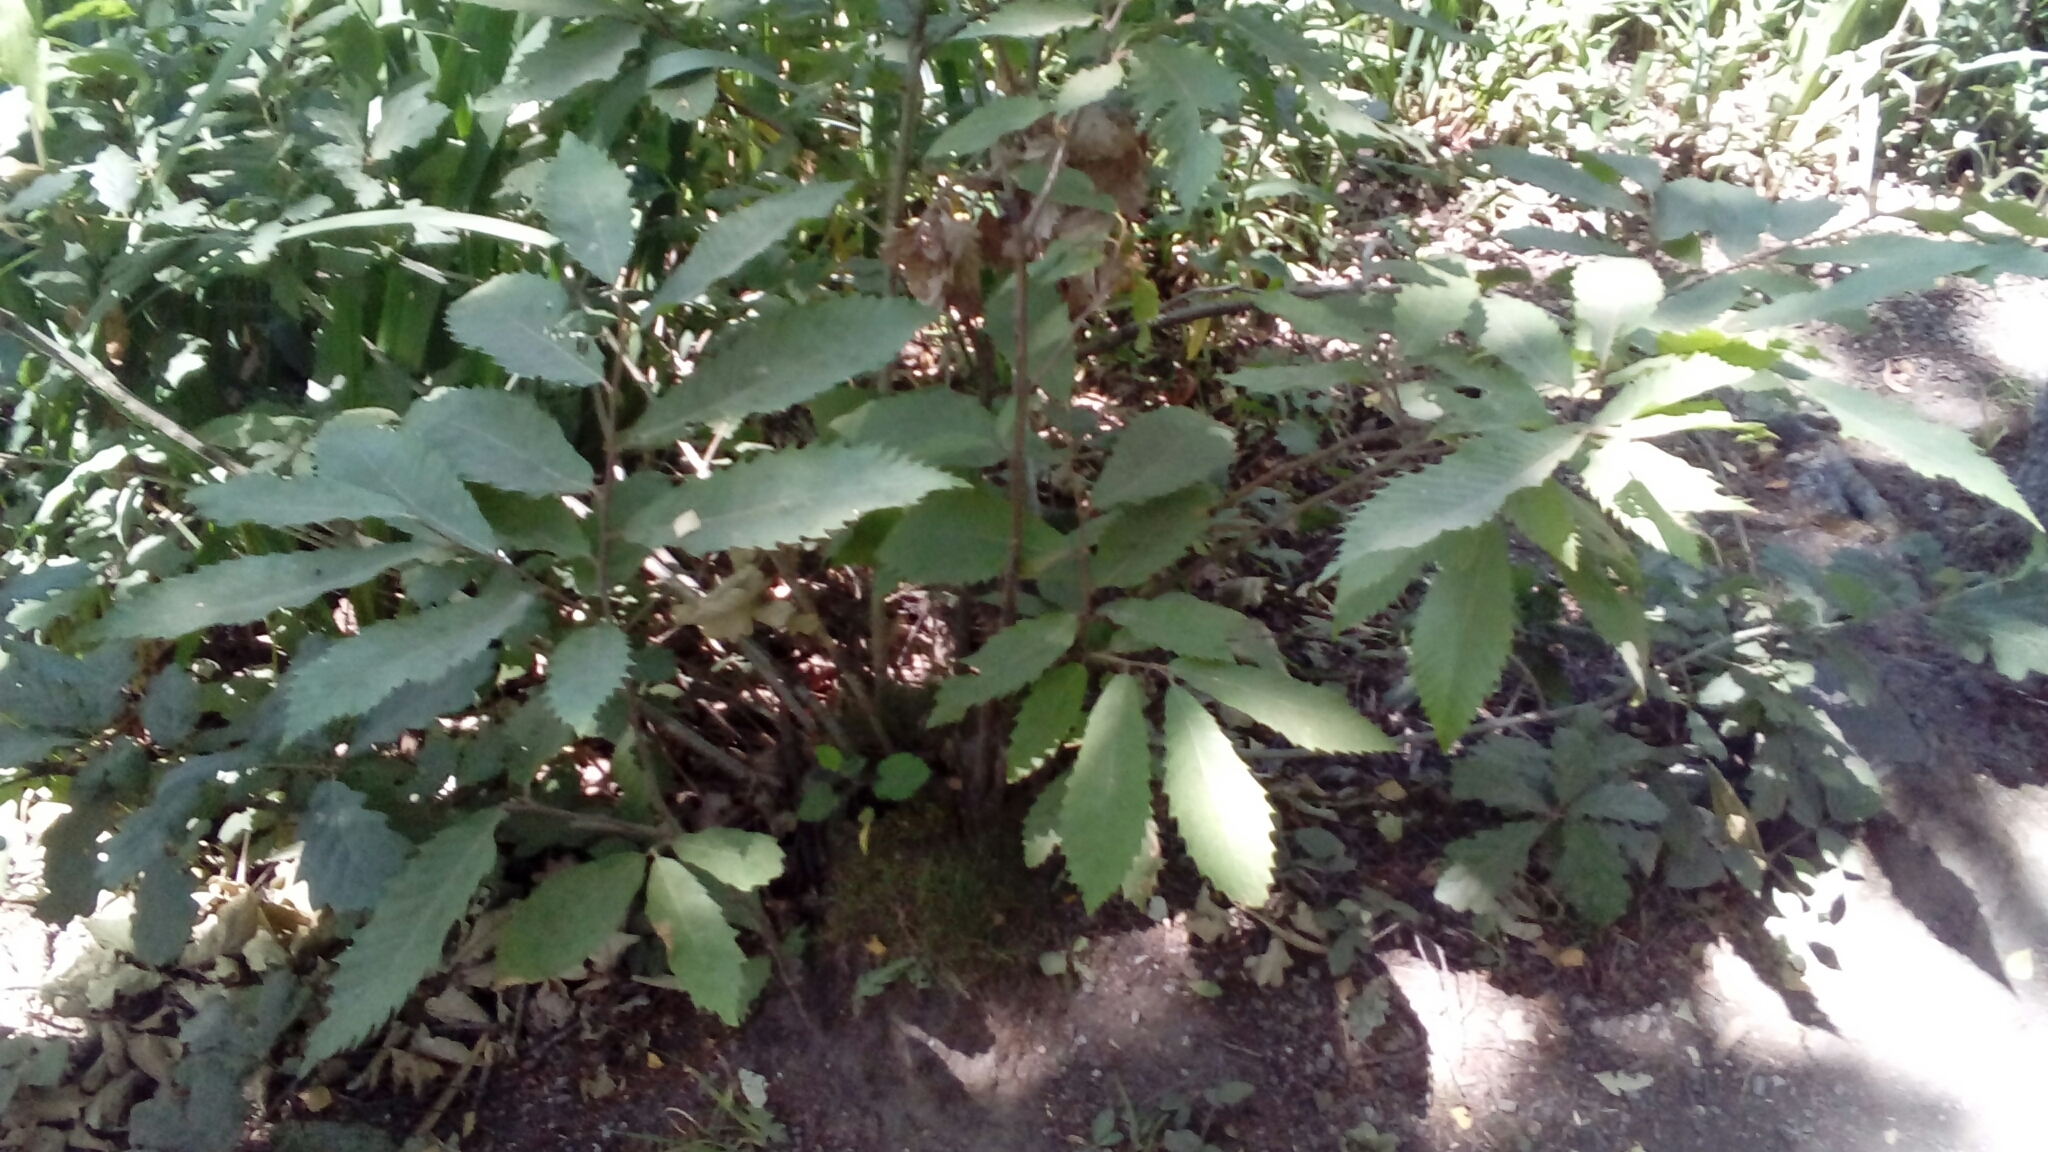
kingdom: Plantae
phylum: Tracheophyta
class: Magnoliopsida
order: Fagales
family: Fagaceae
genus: Castanea
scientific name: Castanea sativa
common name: Sweet chestnut
